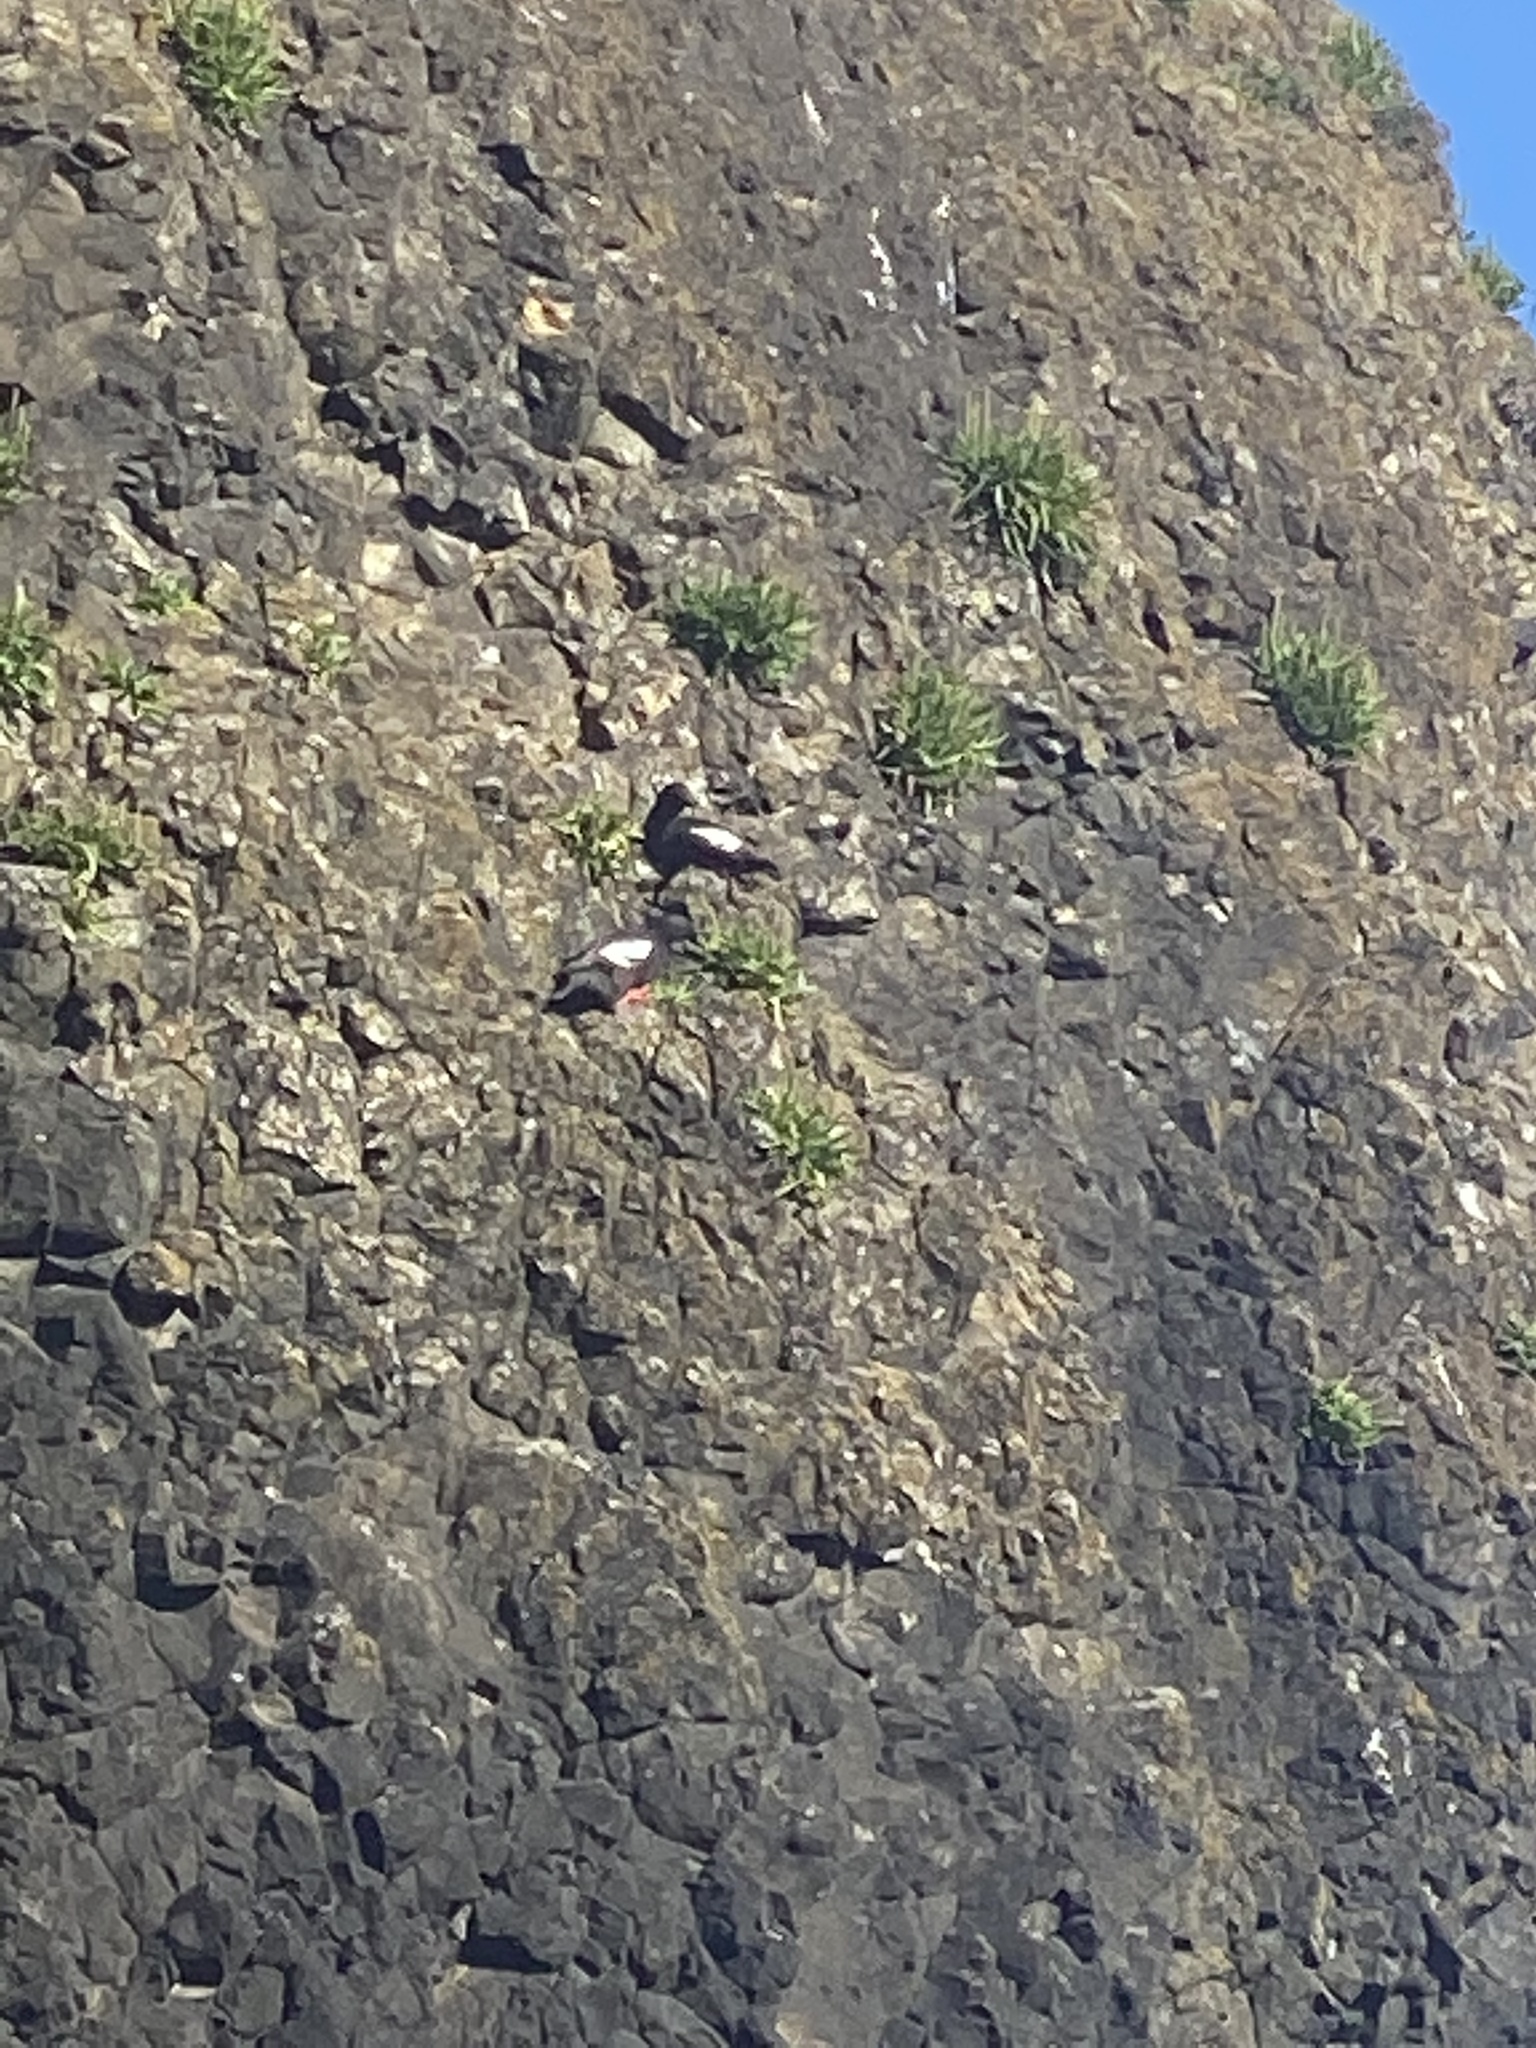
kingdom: Animalia
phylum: Chordata
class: Aves
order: Charadriiformes
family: Alcidae
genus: Cepphus
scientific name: Cepphus columba
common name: Pigeon guillemot
